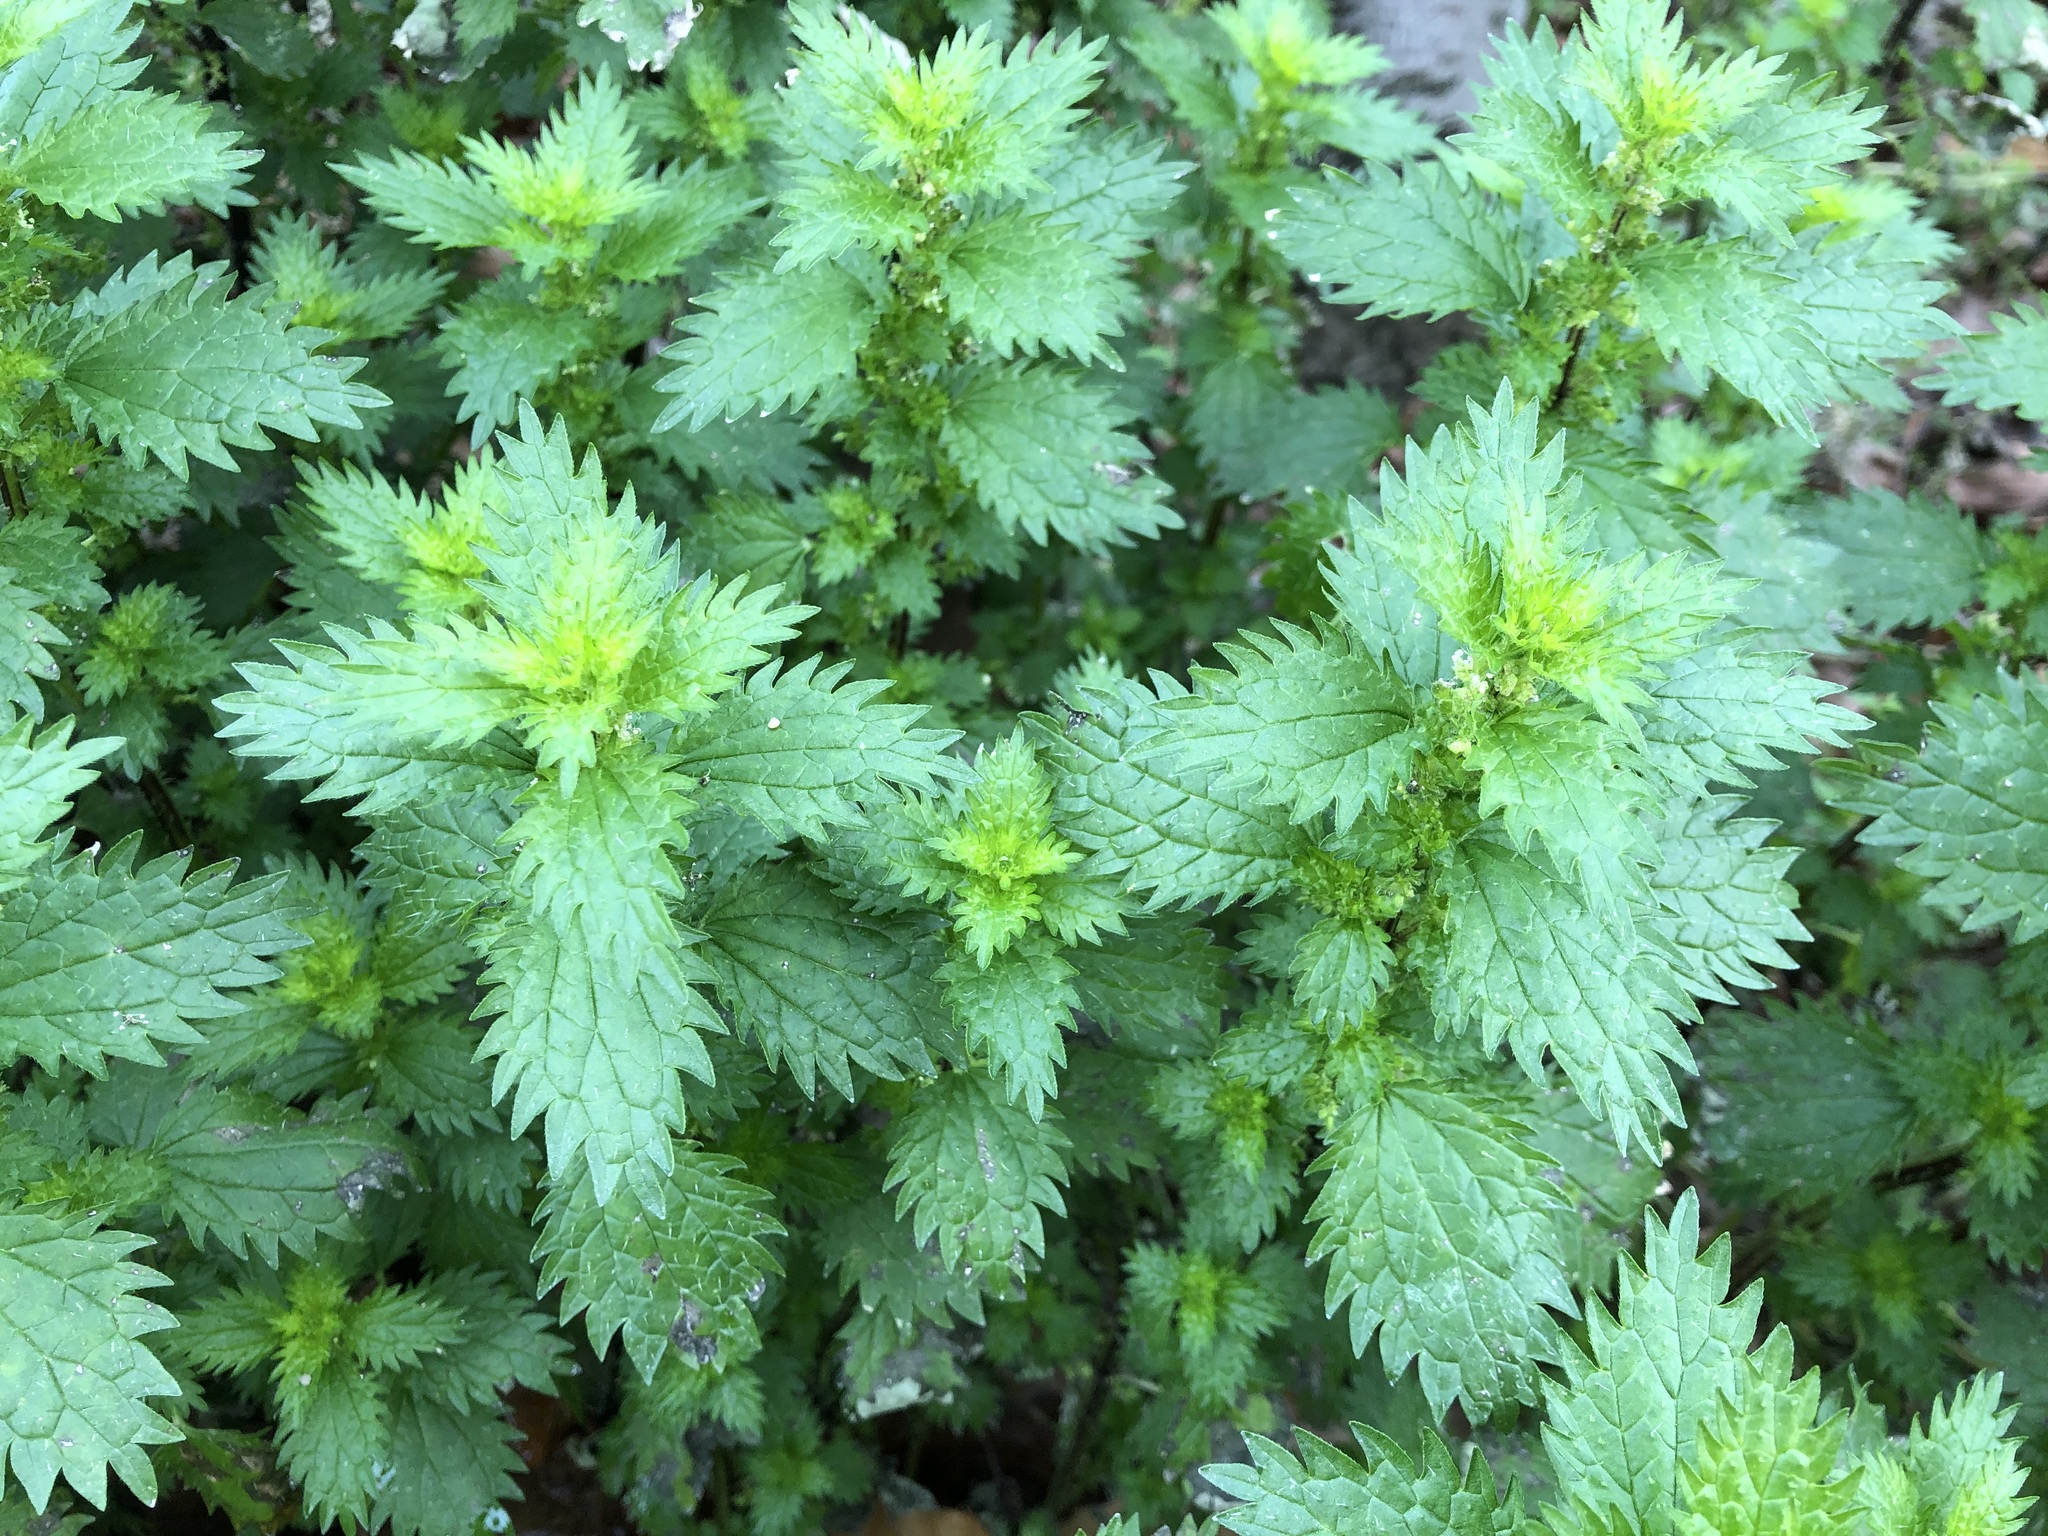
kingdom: Plantae
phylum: Tracheophyta
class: Magnoliopsida
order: Rosales
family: Urticaceae
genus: Urtica
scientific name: Urtica urens
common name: Dwarf nettle
